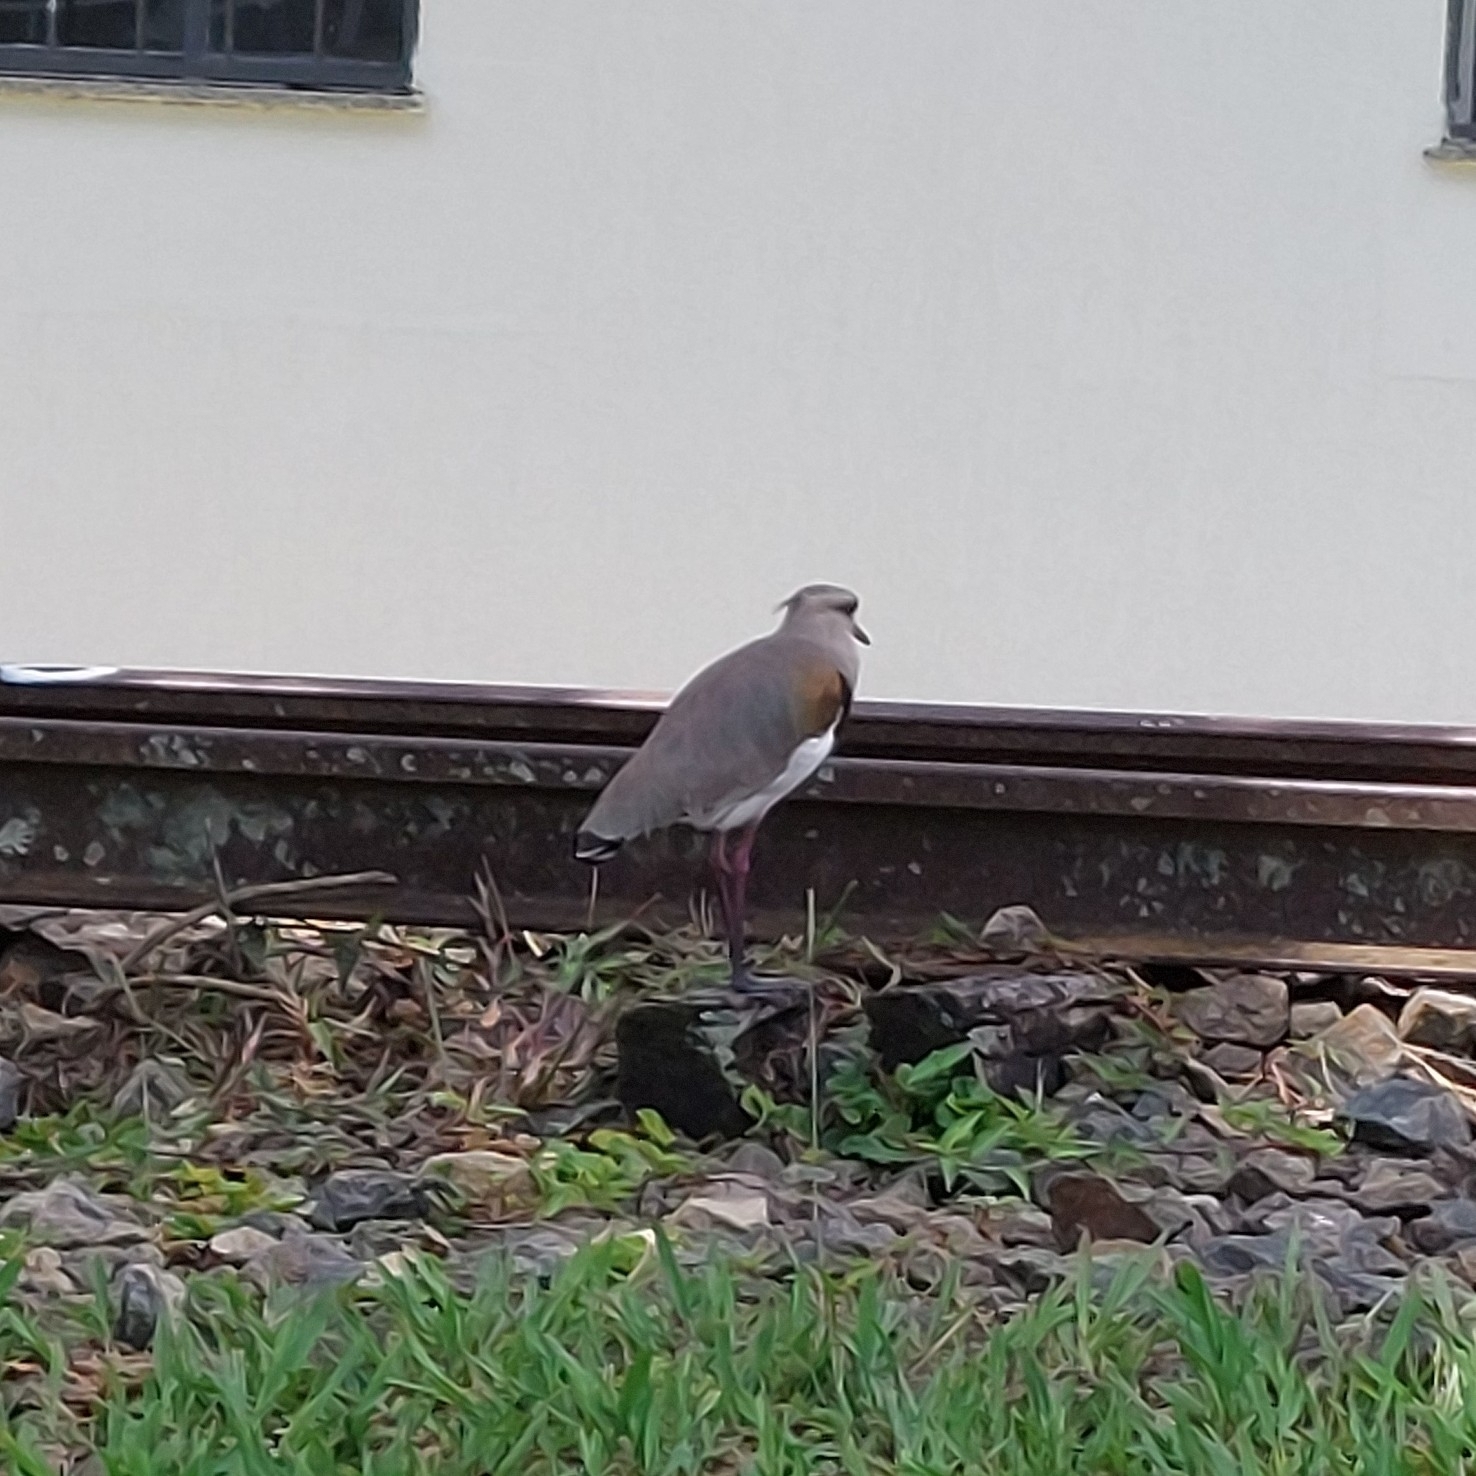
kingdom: Animalia
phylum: Chordata
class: Aves
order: Charadriiformes
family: Charadriidae
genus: Vanellus
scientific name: Vanellus chilensis
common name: Southern lapwing
